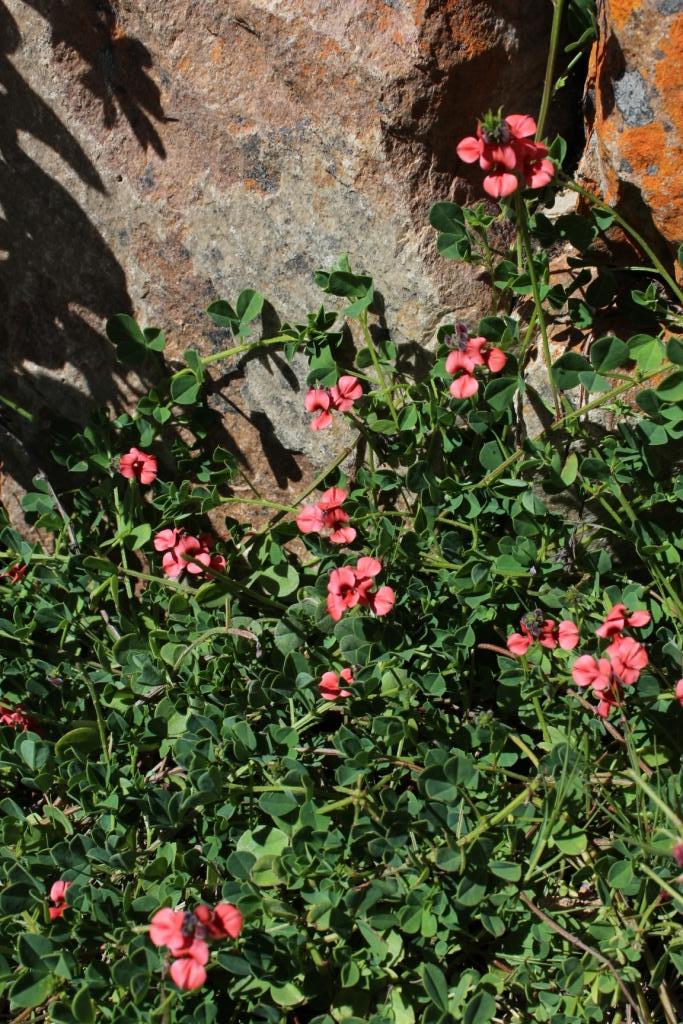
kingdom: Plantae
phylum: Tracheophyta
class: Magnoliopsida
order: Fabales
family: Fabaceae
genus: Indigofera
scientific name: Indigofera porrecta
